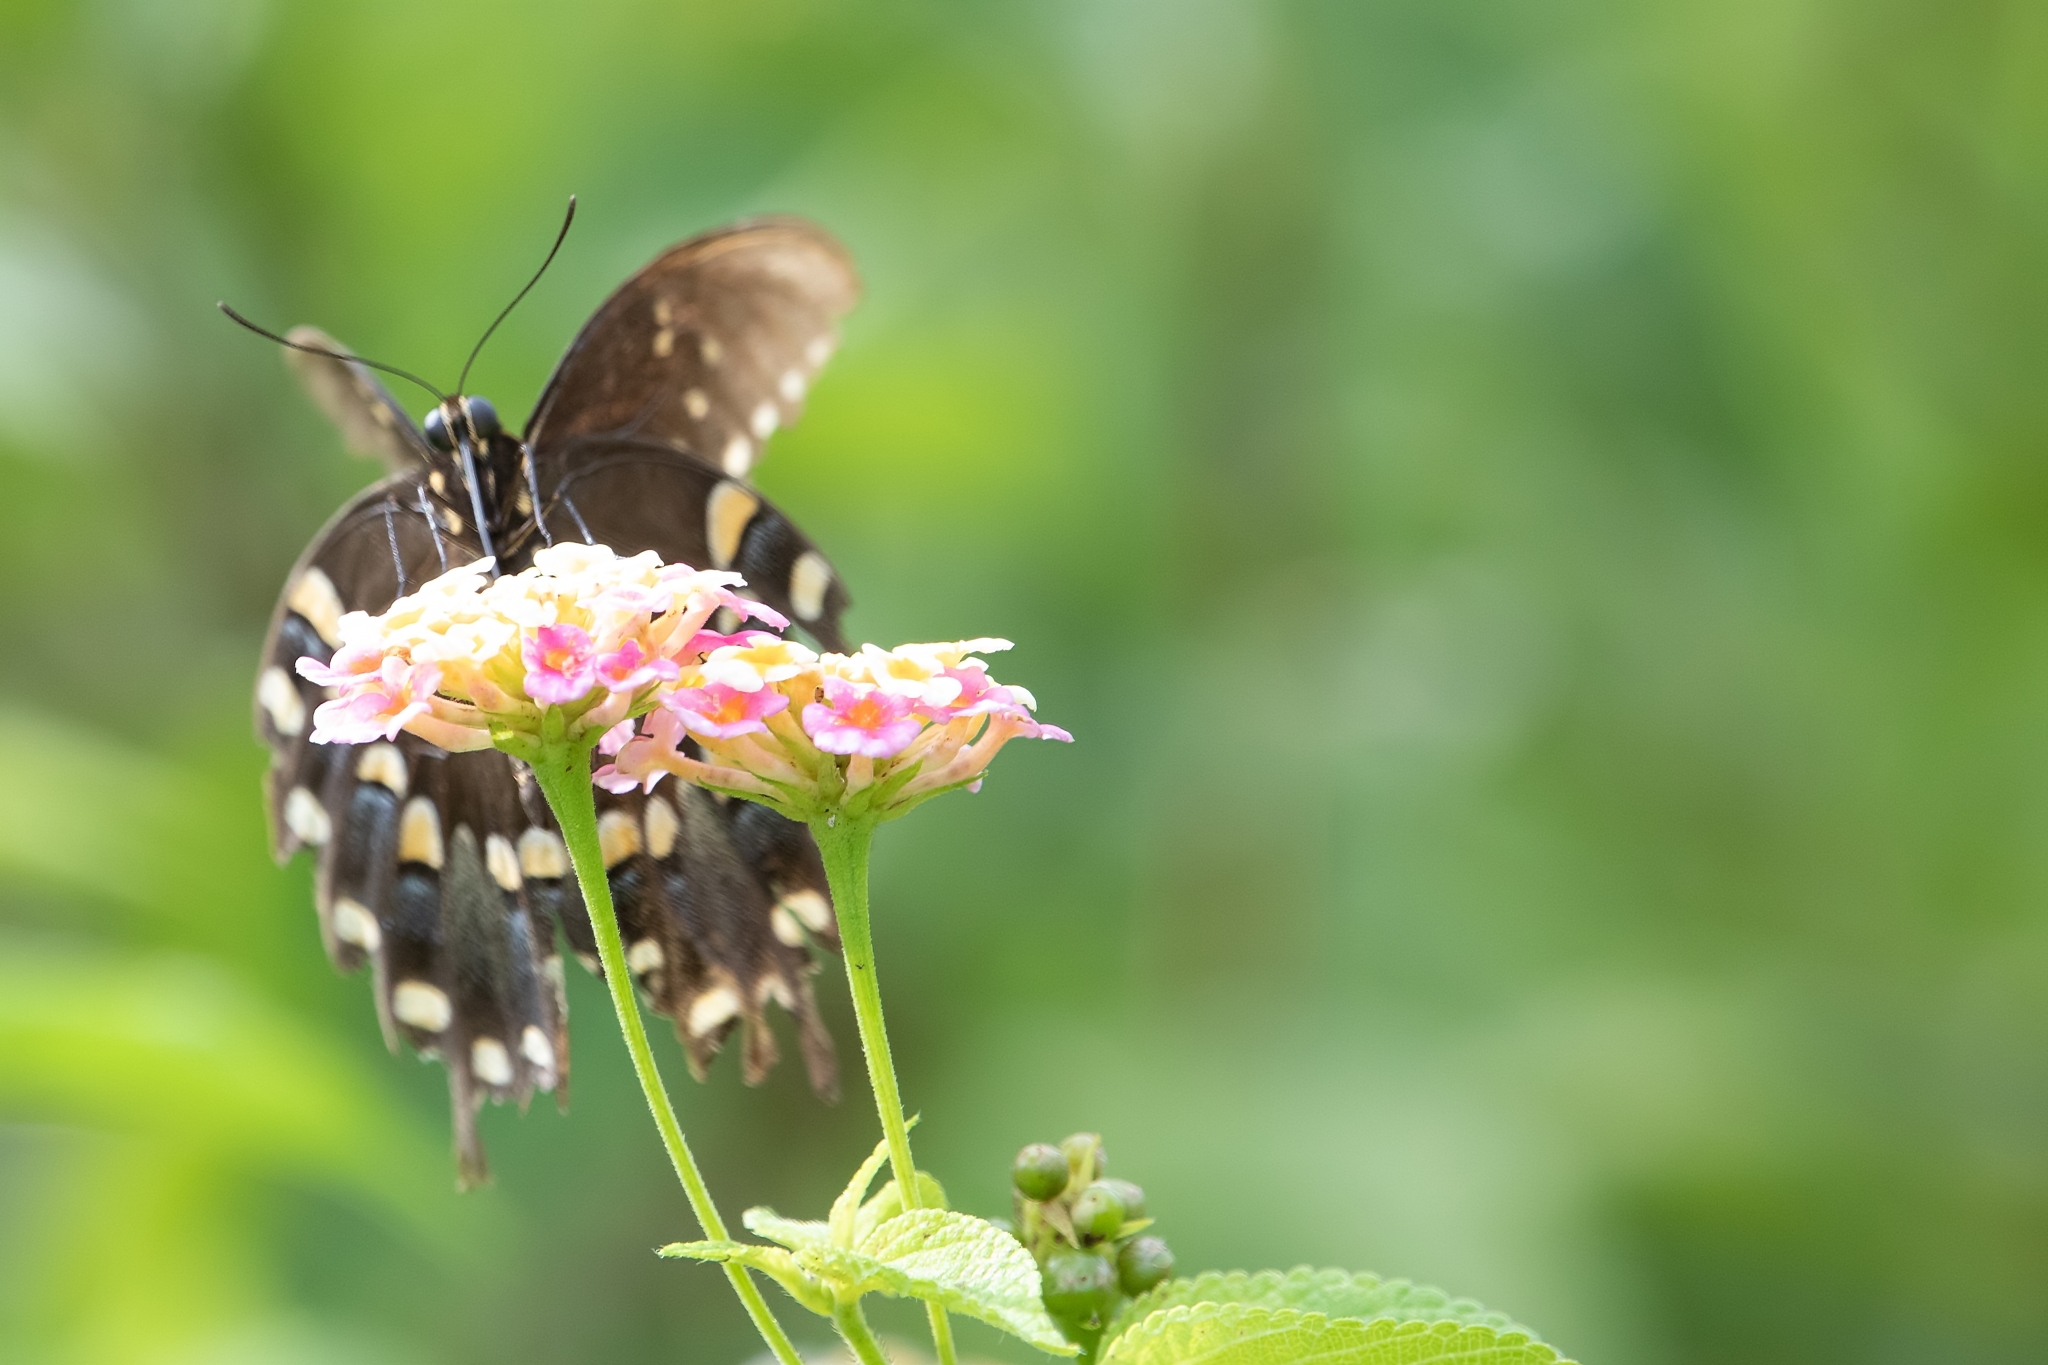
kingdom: Animalia
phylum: Arthropoda
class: Insecta
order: Lepidoptera
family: Papilionidae
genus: Papilio
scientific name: Papilio troilus
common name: Spicebush swallowtail
